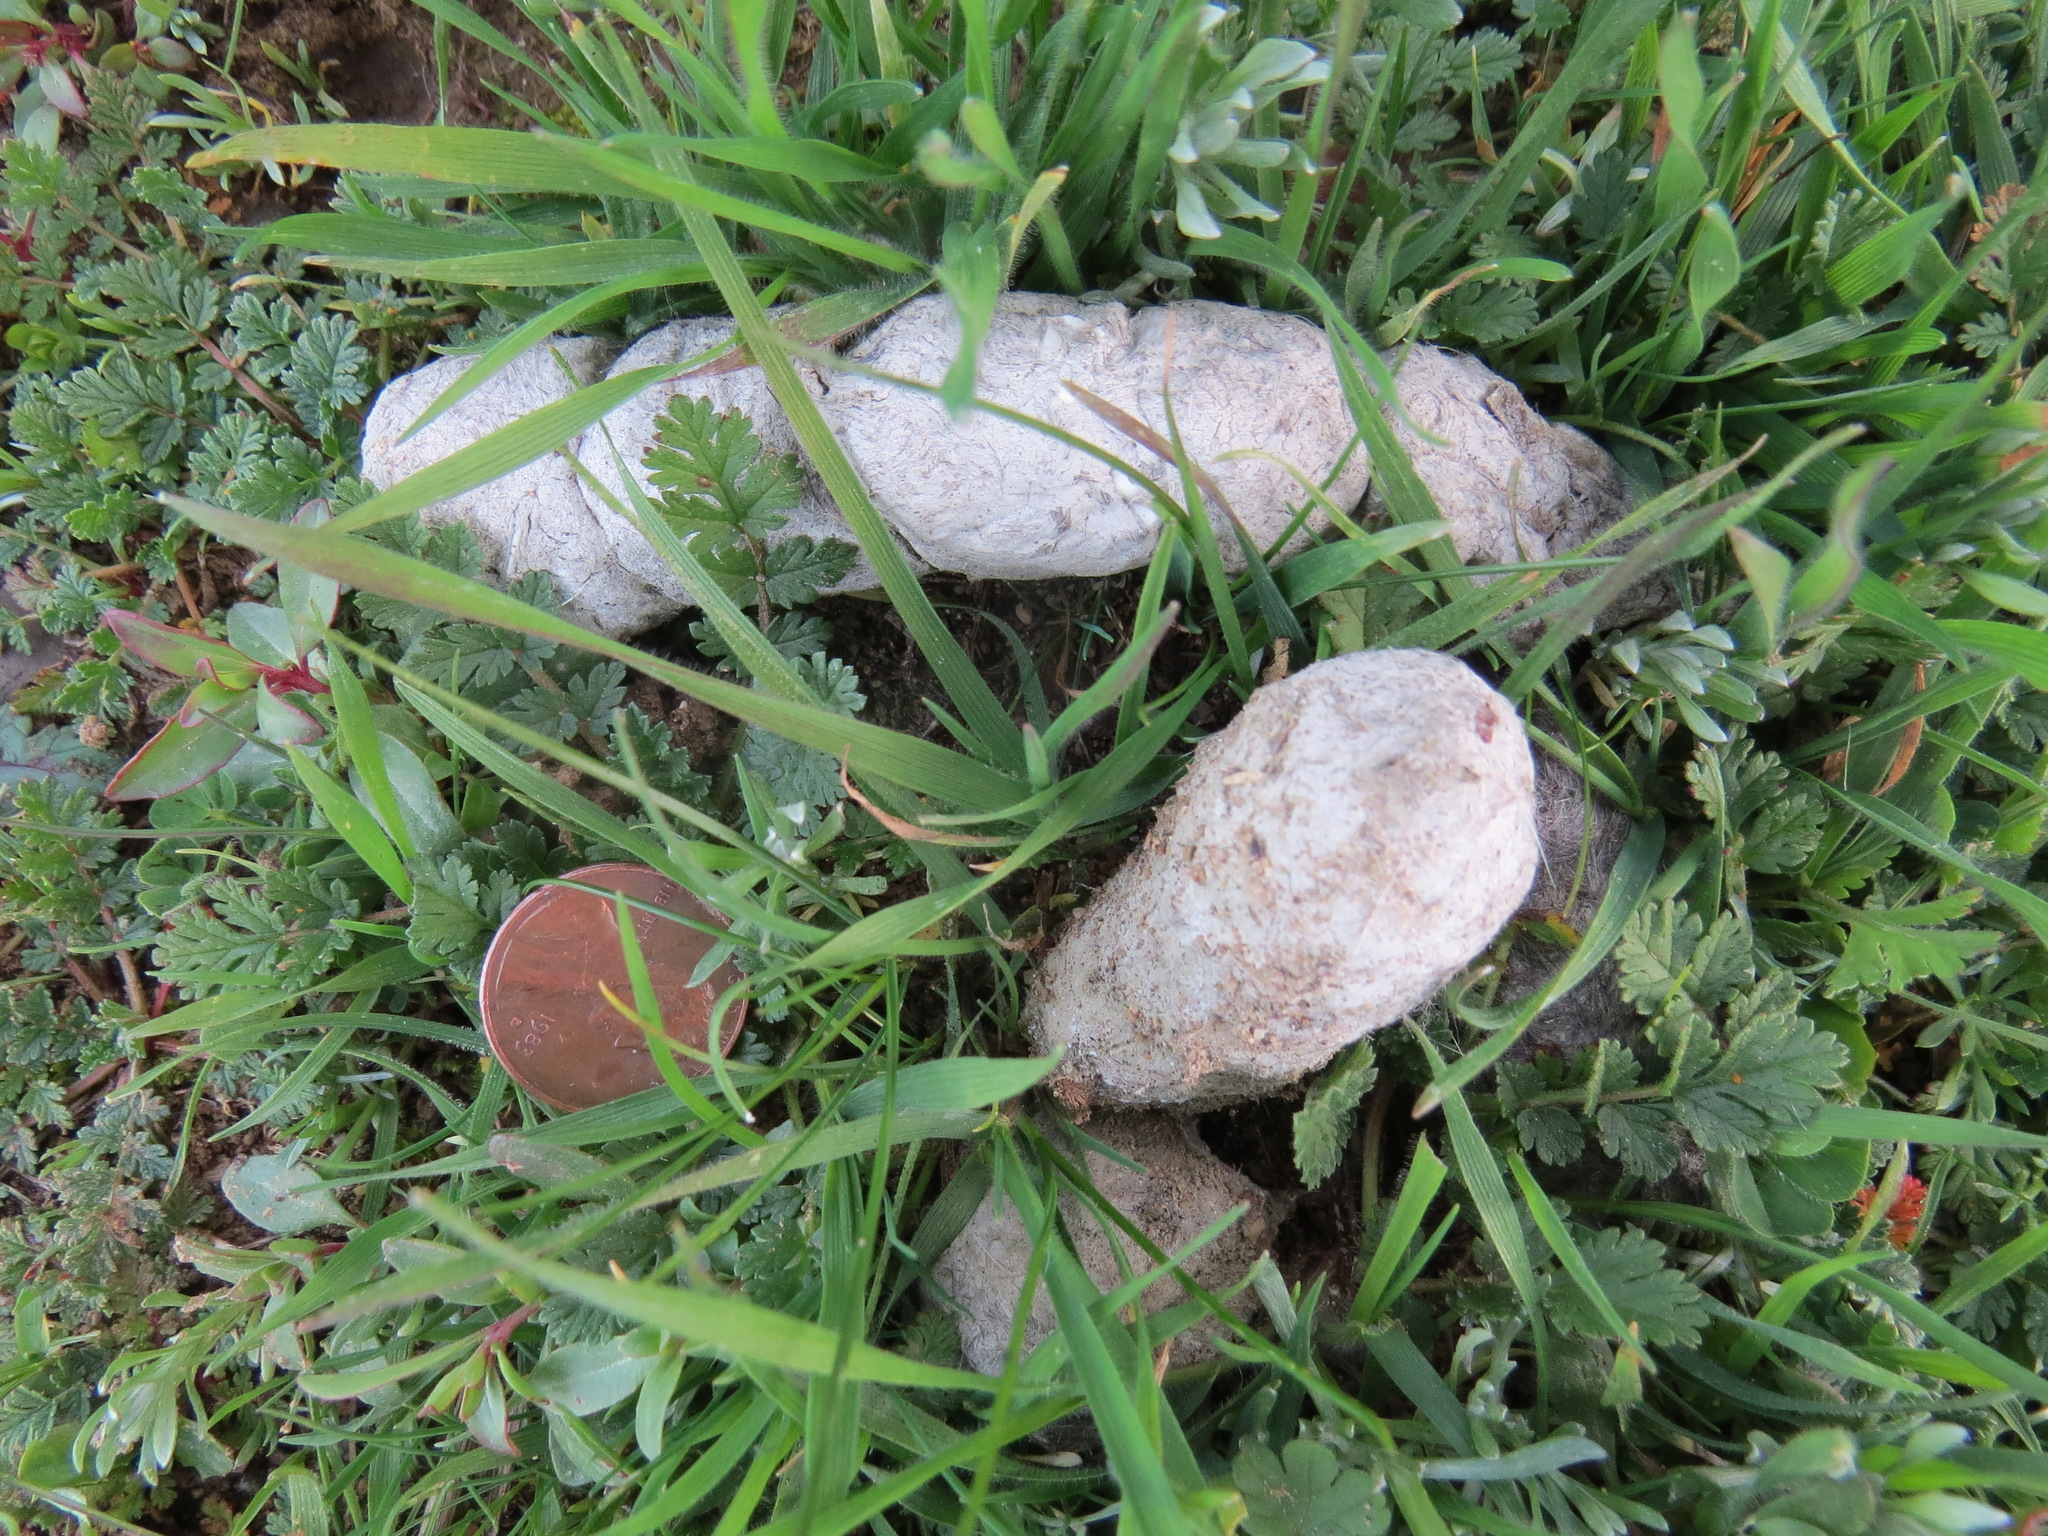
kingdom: Animalia
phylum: Chordata
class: Mammalia
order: Carnivora
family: Felidae
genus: Lynx
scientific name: Lynx rufus
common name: Bobcat
